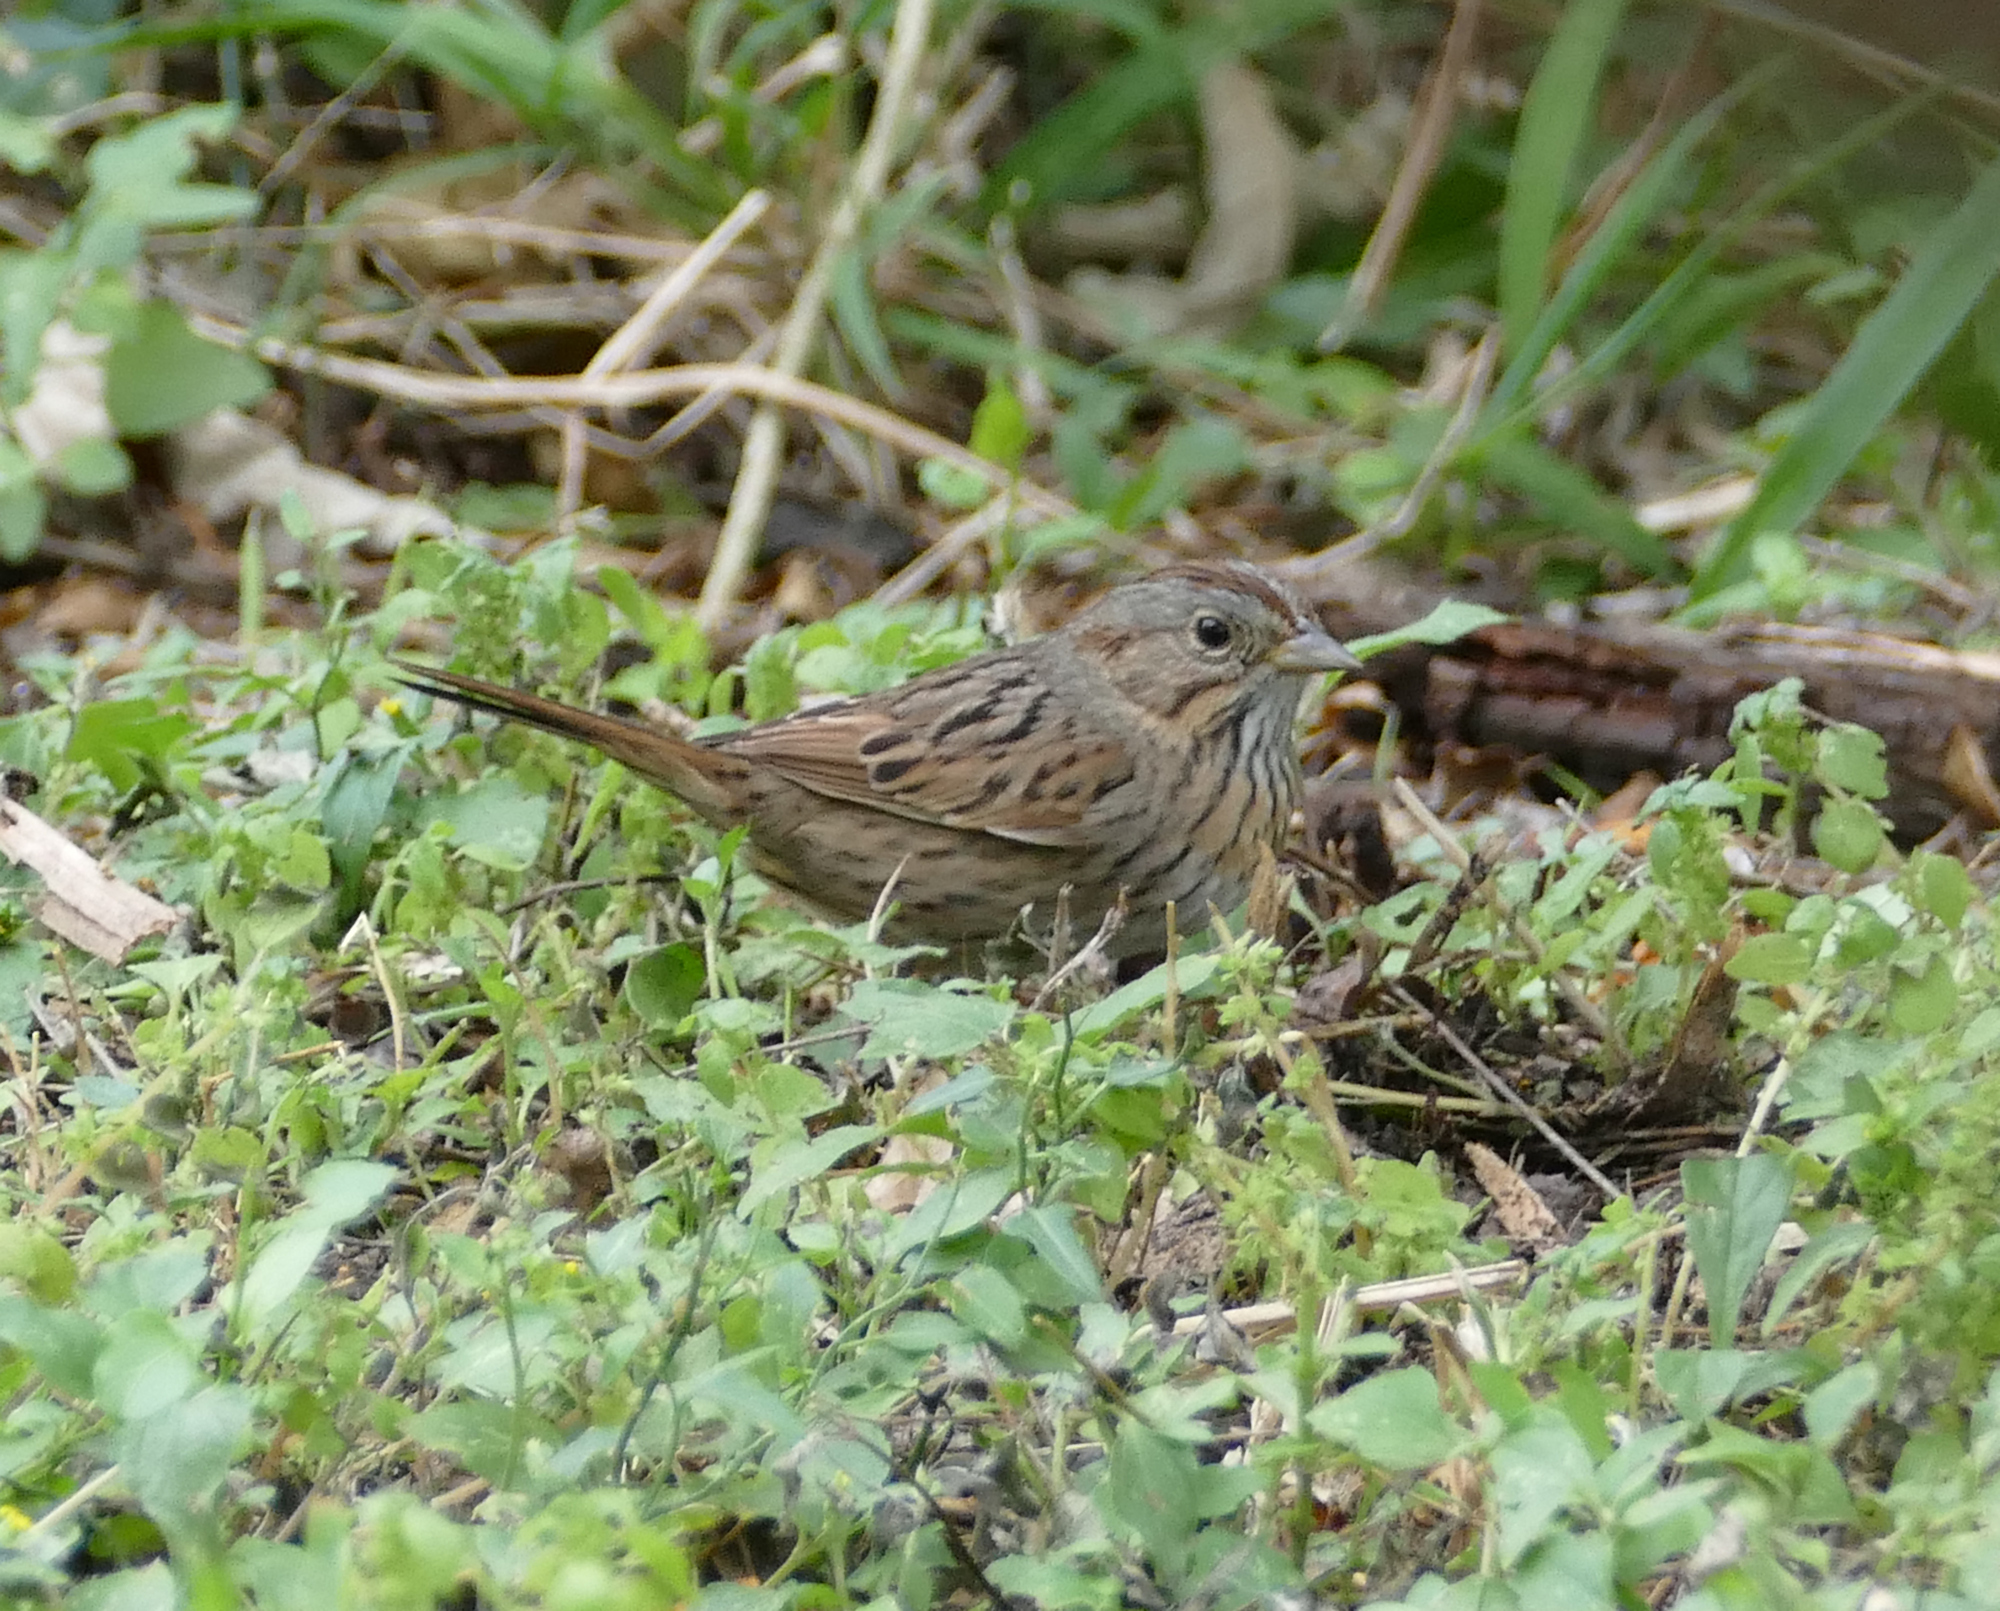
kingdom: Animalia
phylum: Chordata
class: Aves
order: Passeriformes
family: Passerellidae
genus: Melospiza
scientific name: Melospiza lincolnii
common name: Lincoln's sparrow
